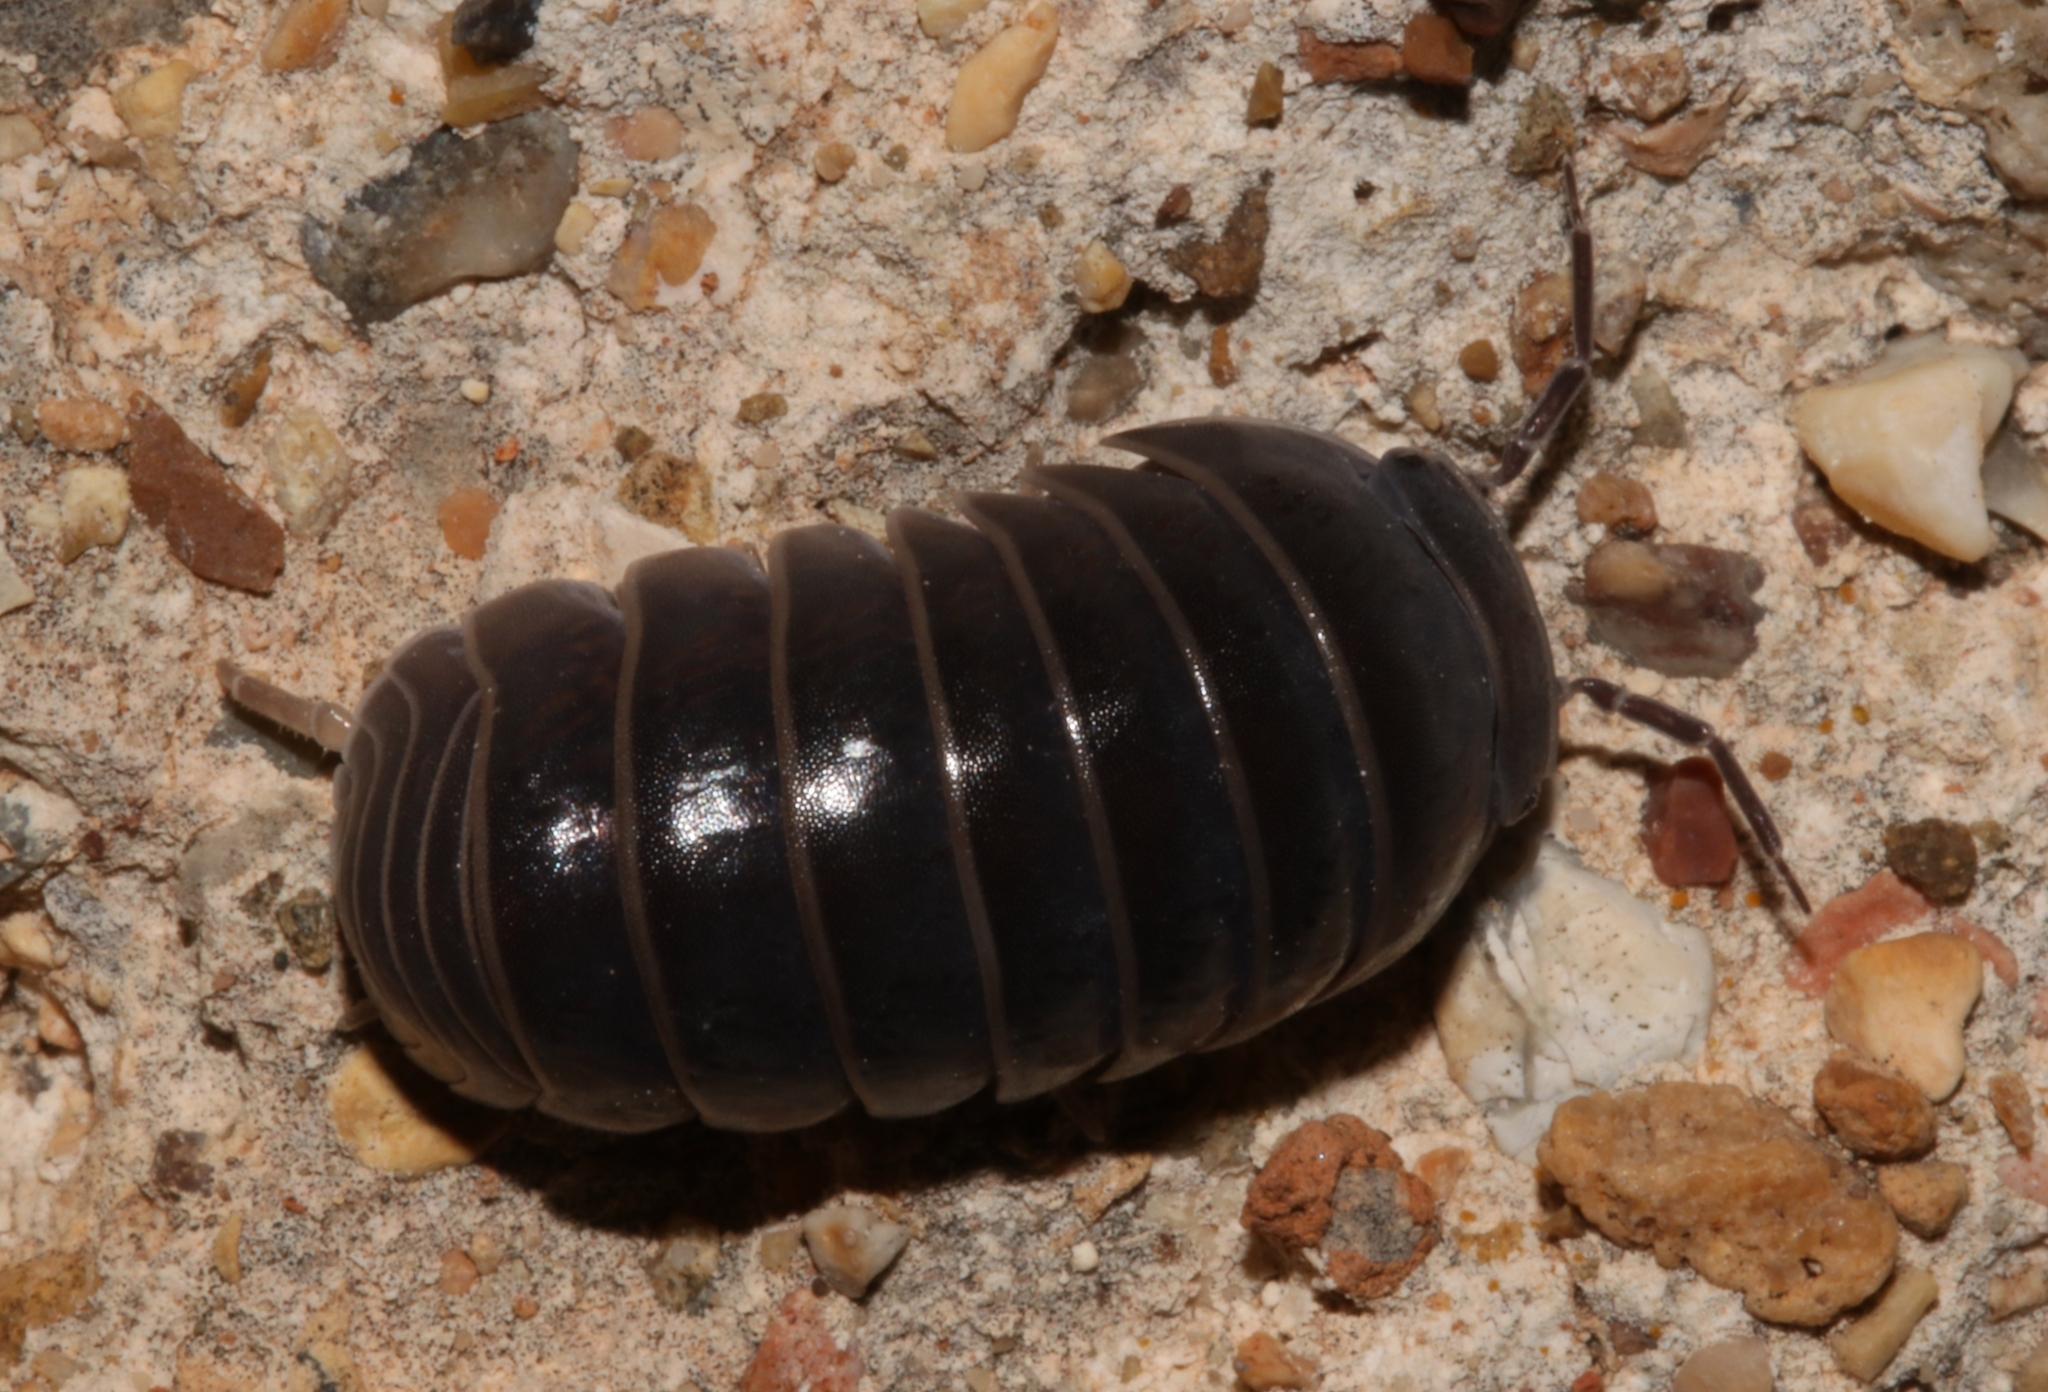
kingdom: Animalia
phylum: Arthropoda
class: Malacostraca
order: Isopoda
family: Armadillidae
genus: Armadillo
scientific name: Armadillo officinalis
